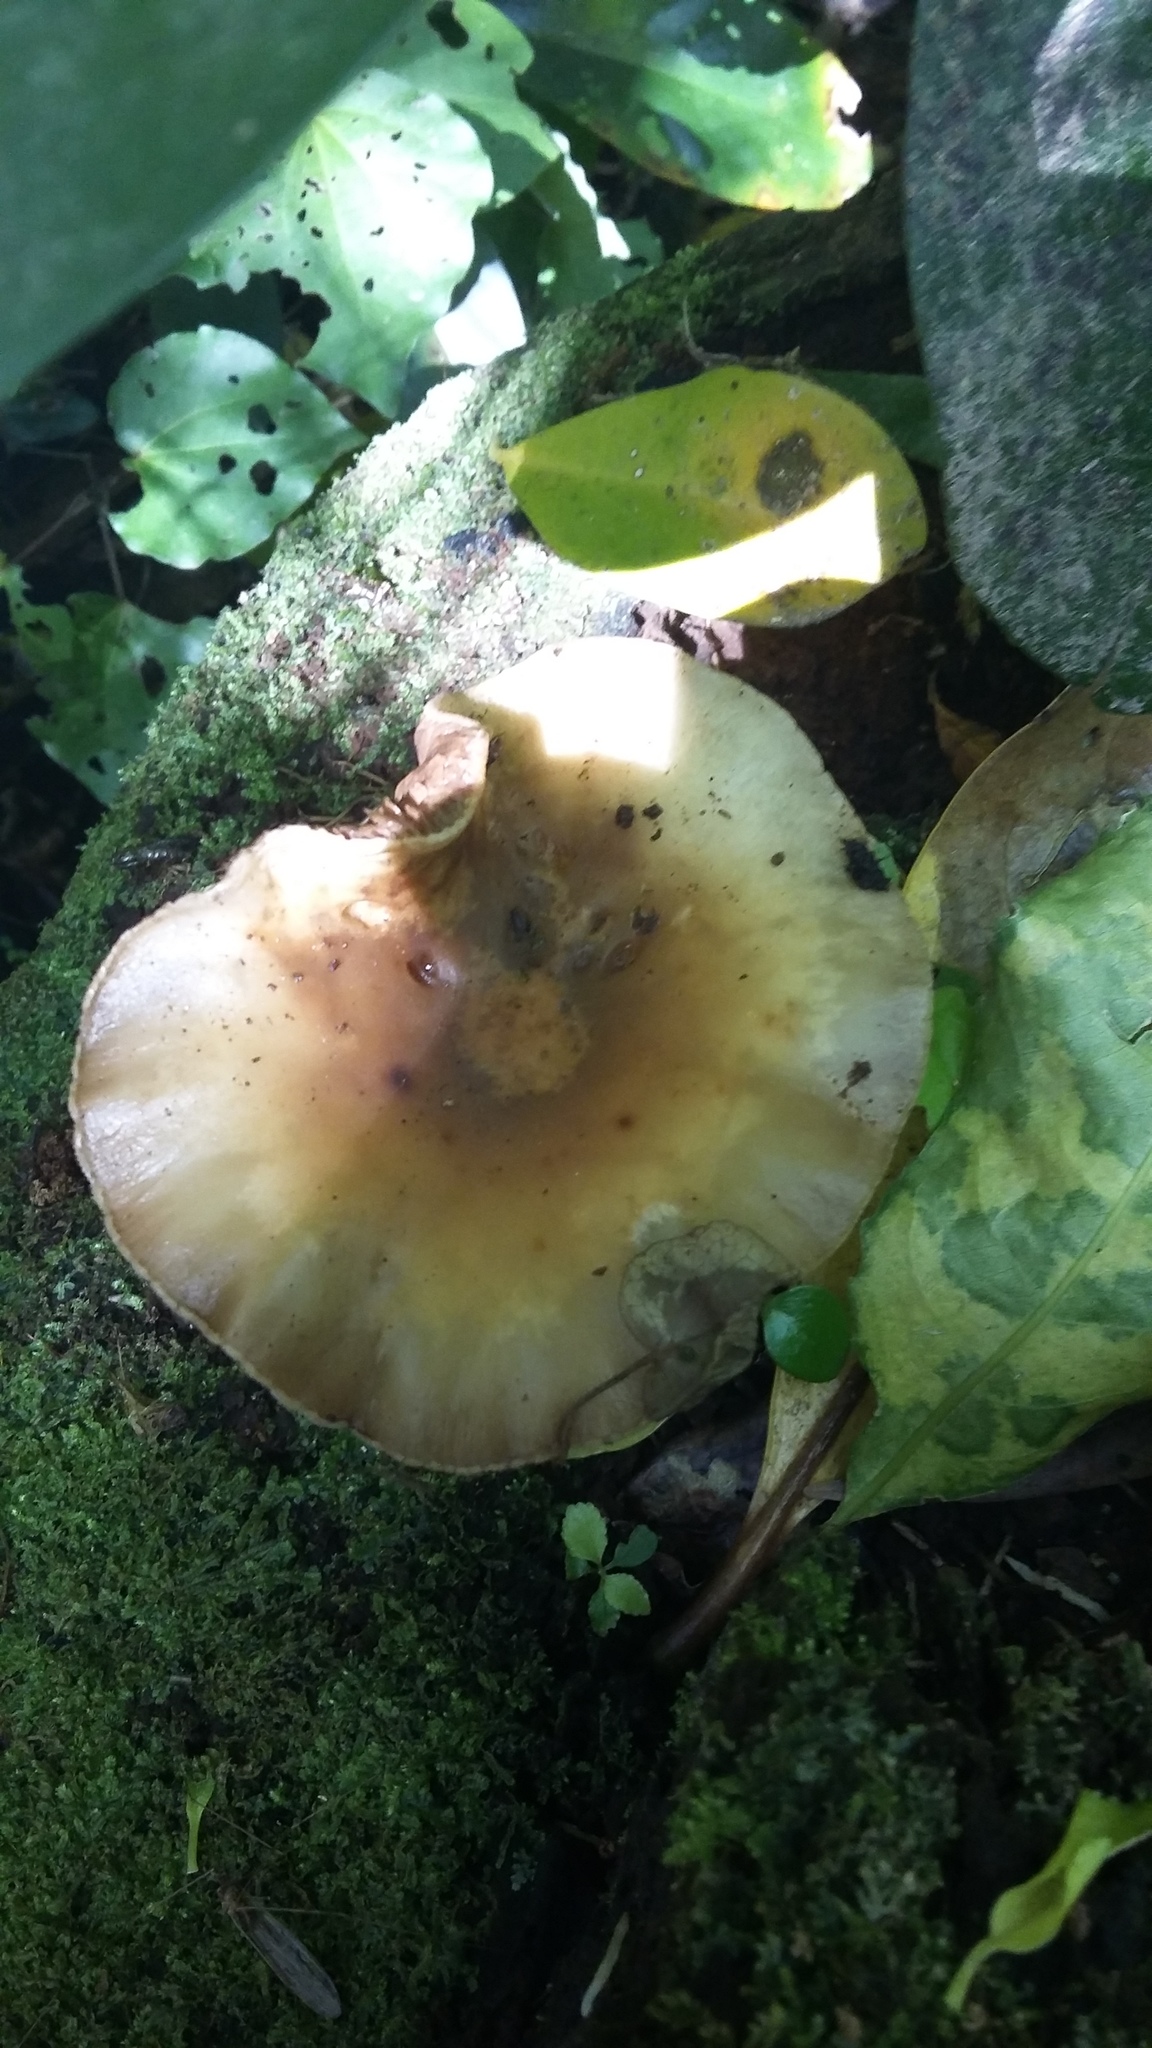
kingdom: Fungi
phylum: Basidiomycota
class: Agaricomycetes
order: Agaricales
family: Tubariaceae
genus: Cyclocybe
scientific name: Cyclocybe parasitica
